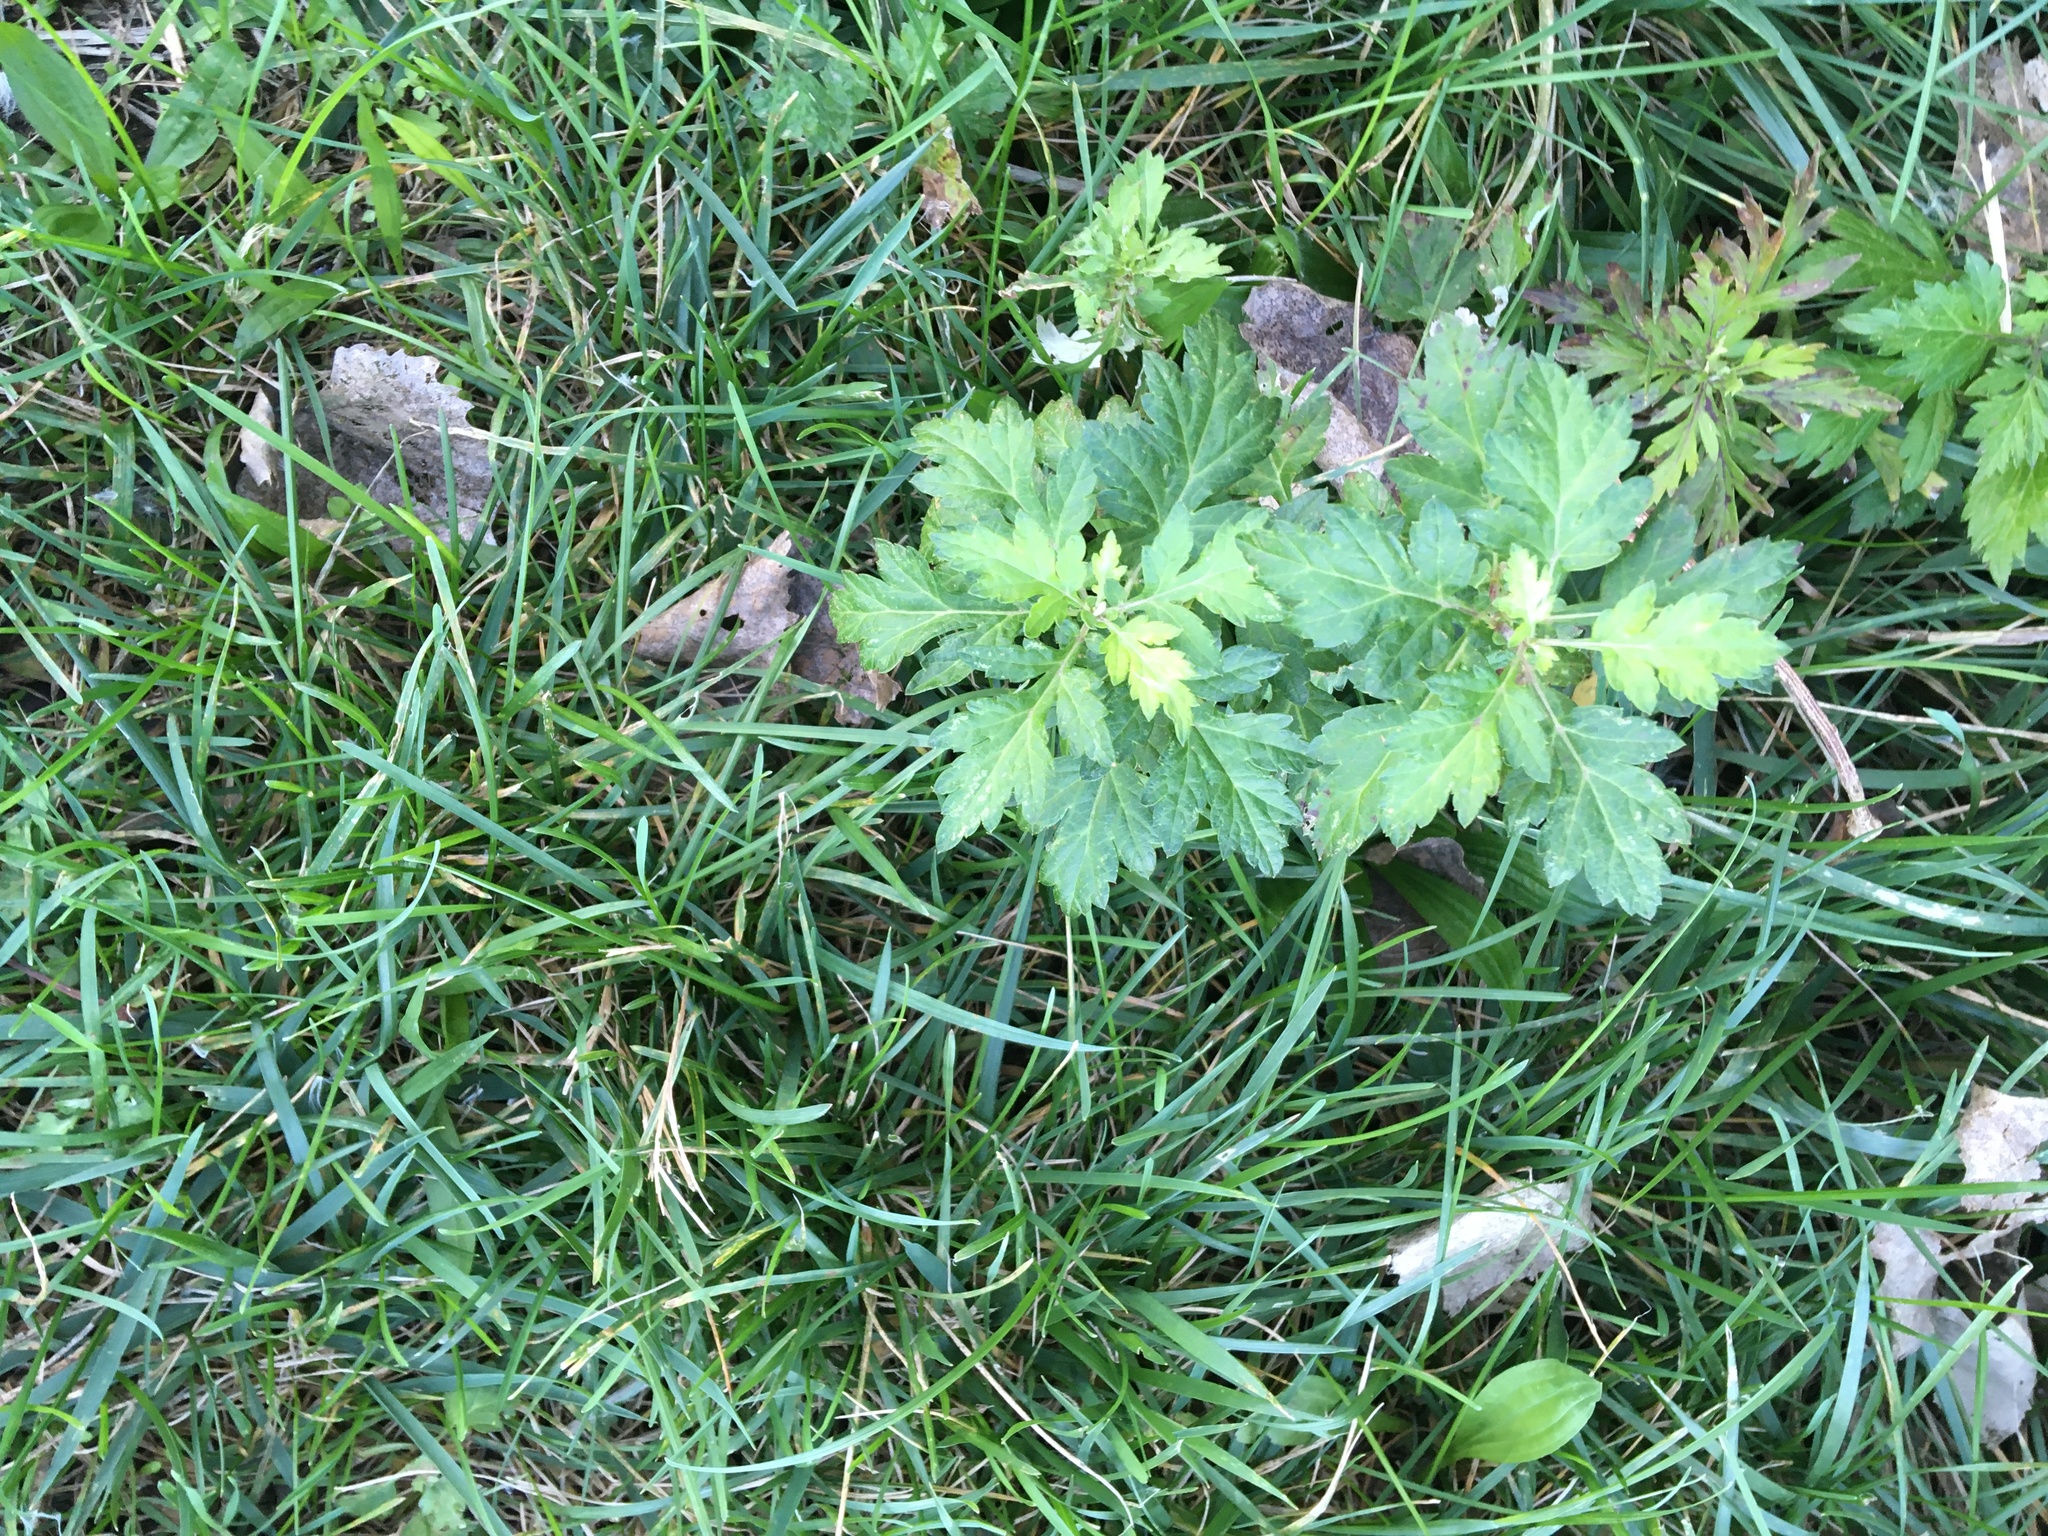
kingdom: Plantae
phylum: Tracheophyta
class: Magnoliopsida
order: Asterales
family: Asteraceae
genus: Artemisia
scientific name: Artemisia vulgaris
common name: Mugwort
